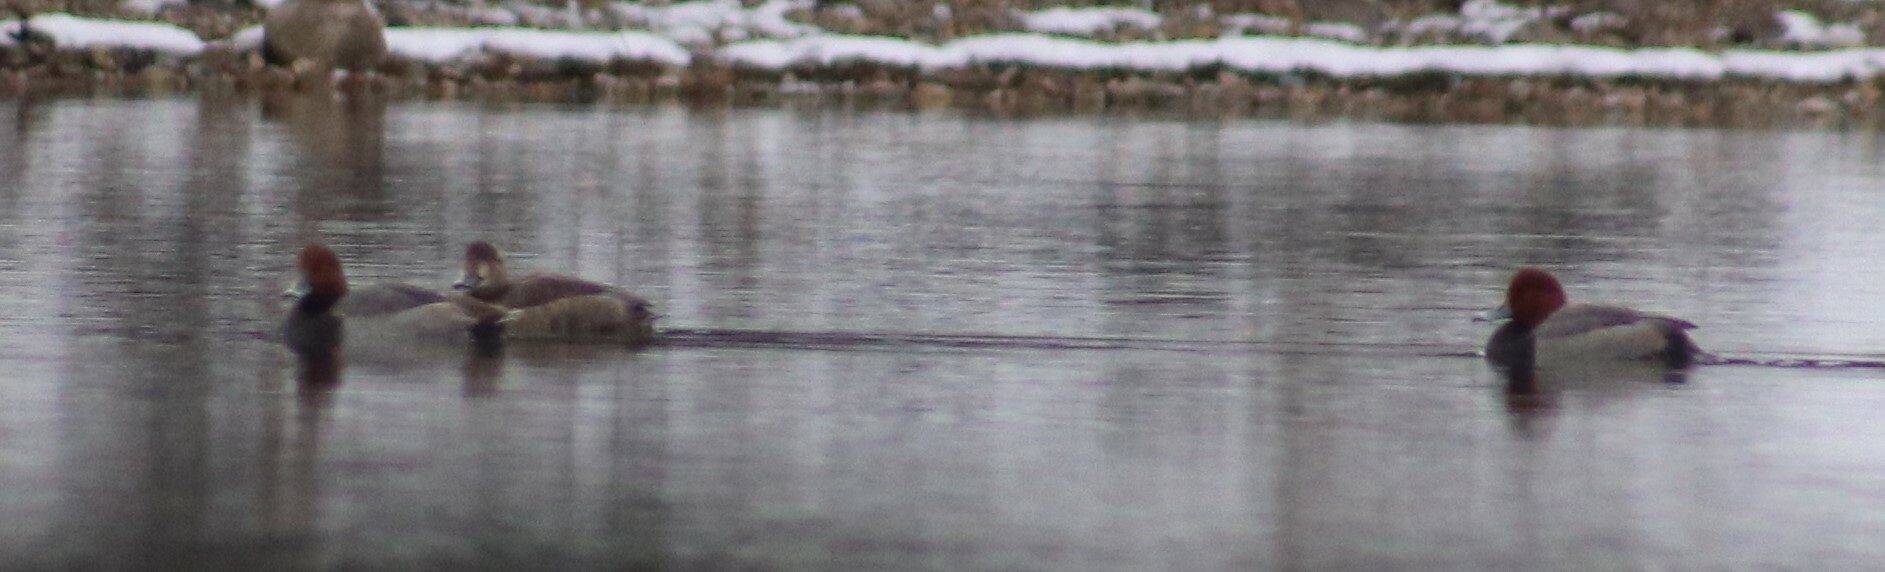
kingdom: Animalia
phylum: Chordata
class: Aves
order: Anseriformes
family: Anatidae
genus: Aythya
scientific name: Aythya americana
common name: Redhead
